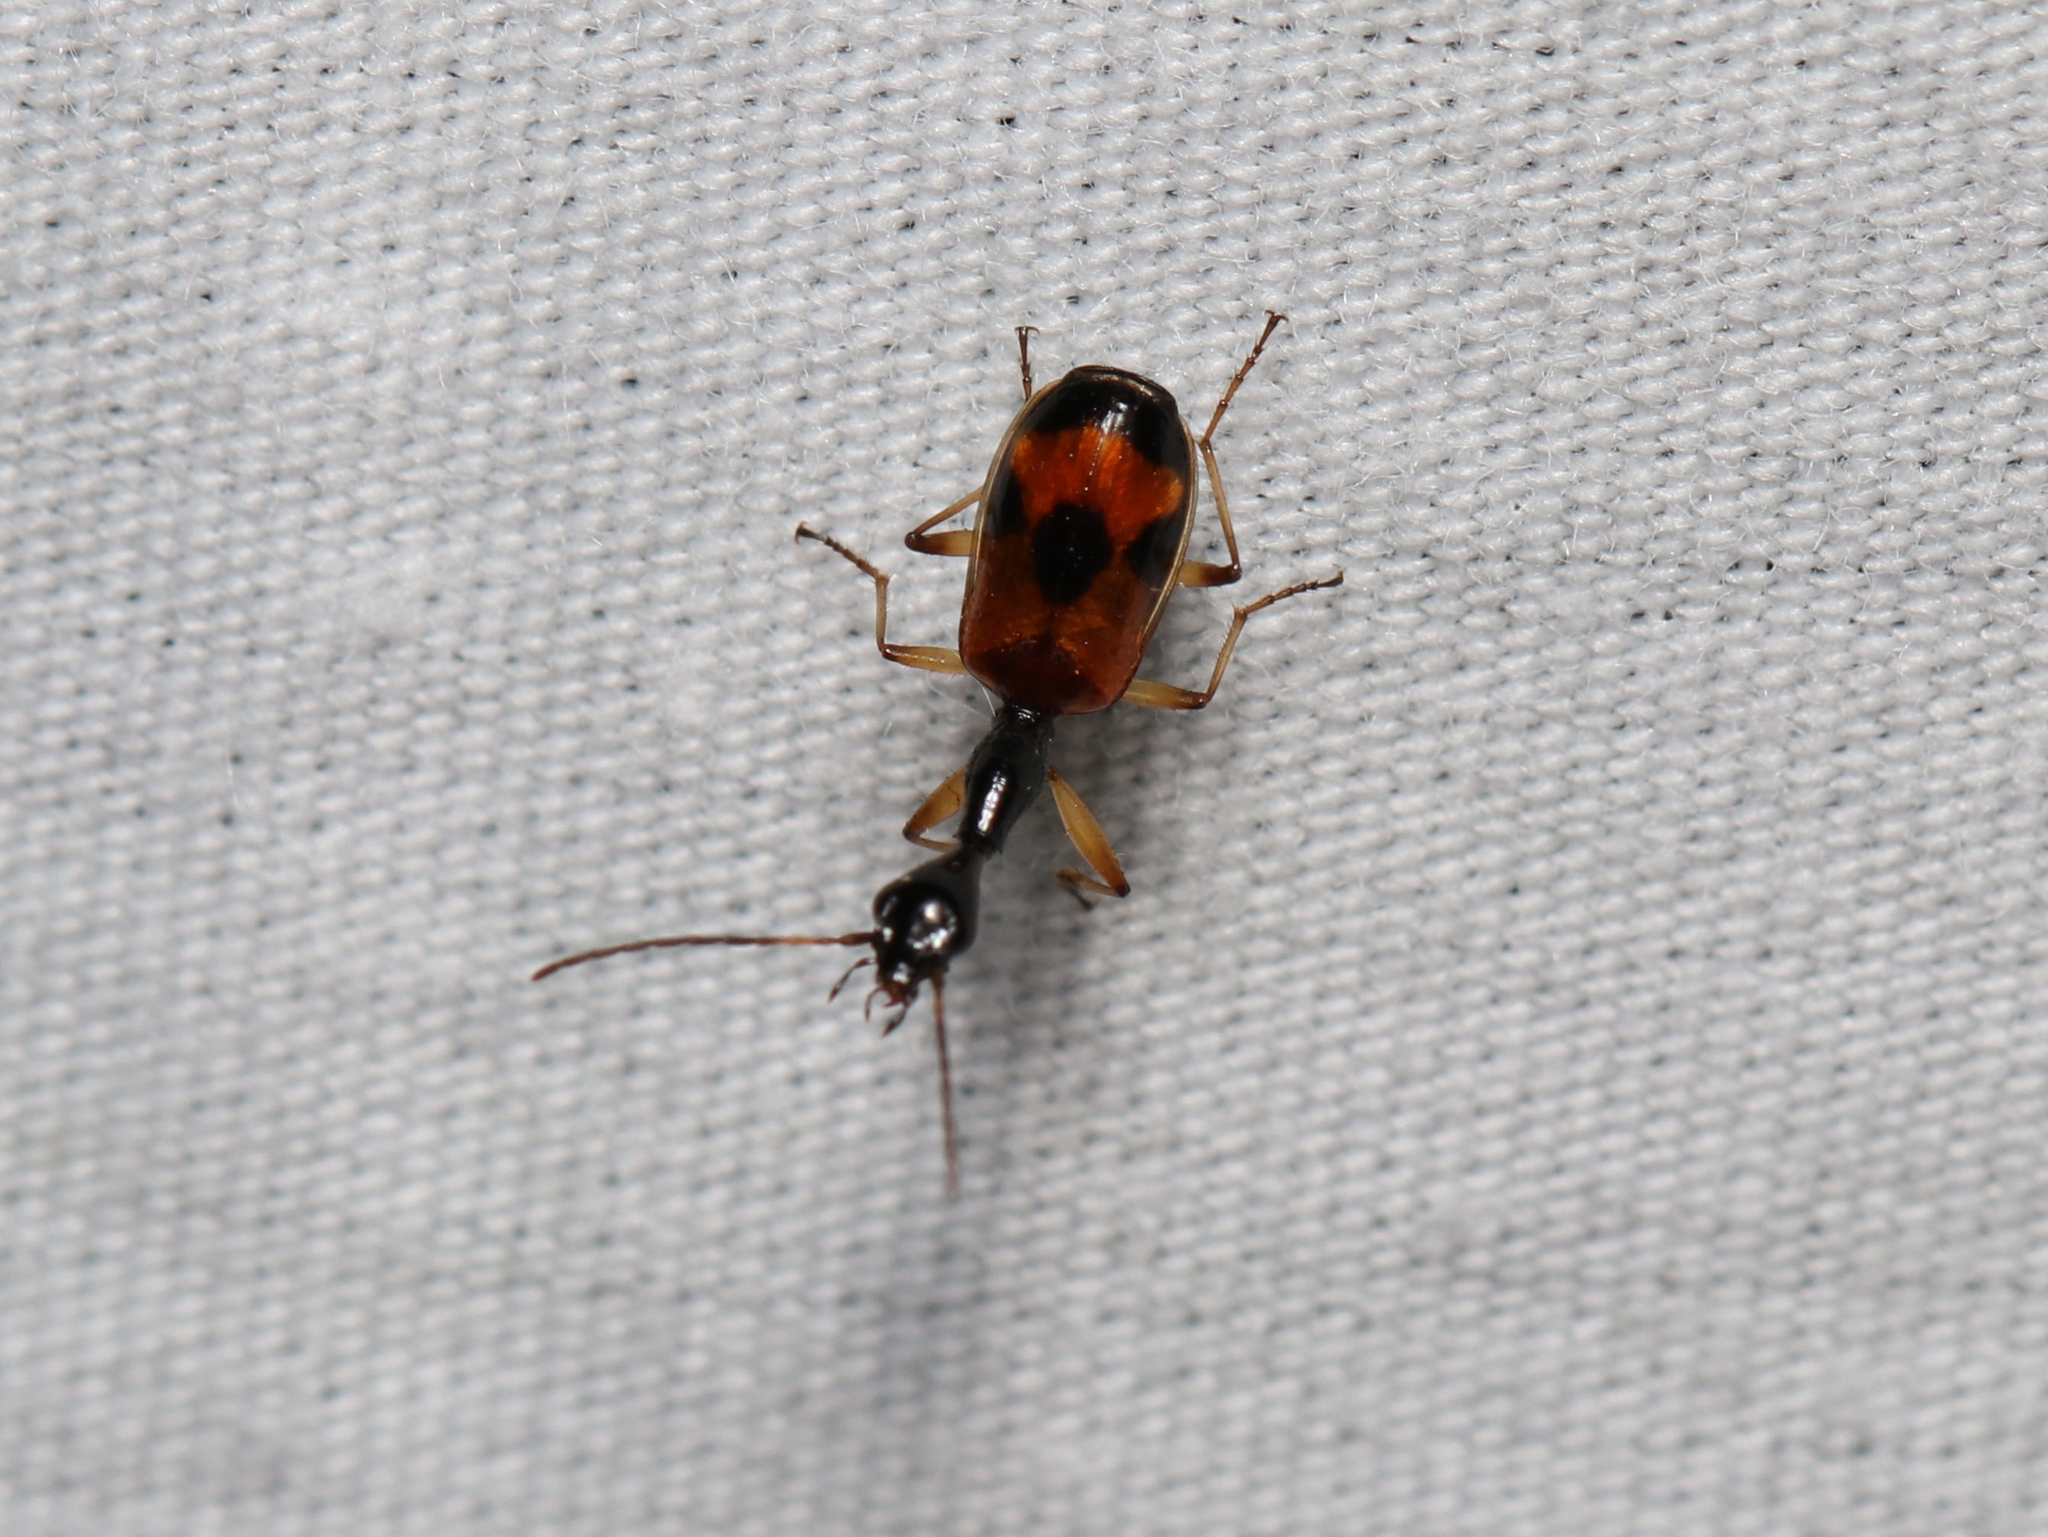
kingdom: Animalia
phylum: Arthropoda
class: Insecta
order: Coleoptera
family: Carabidae
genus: Colliuris
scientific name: Colliuris pensylvanica
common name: Long-necked ground beetle
